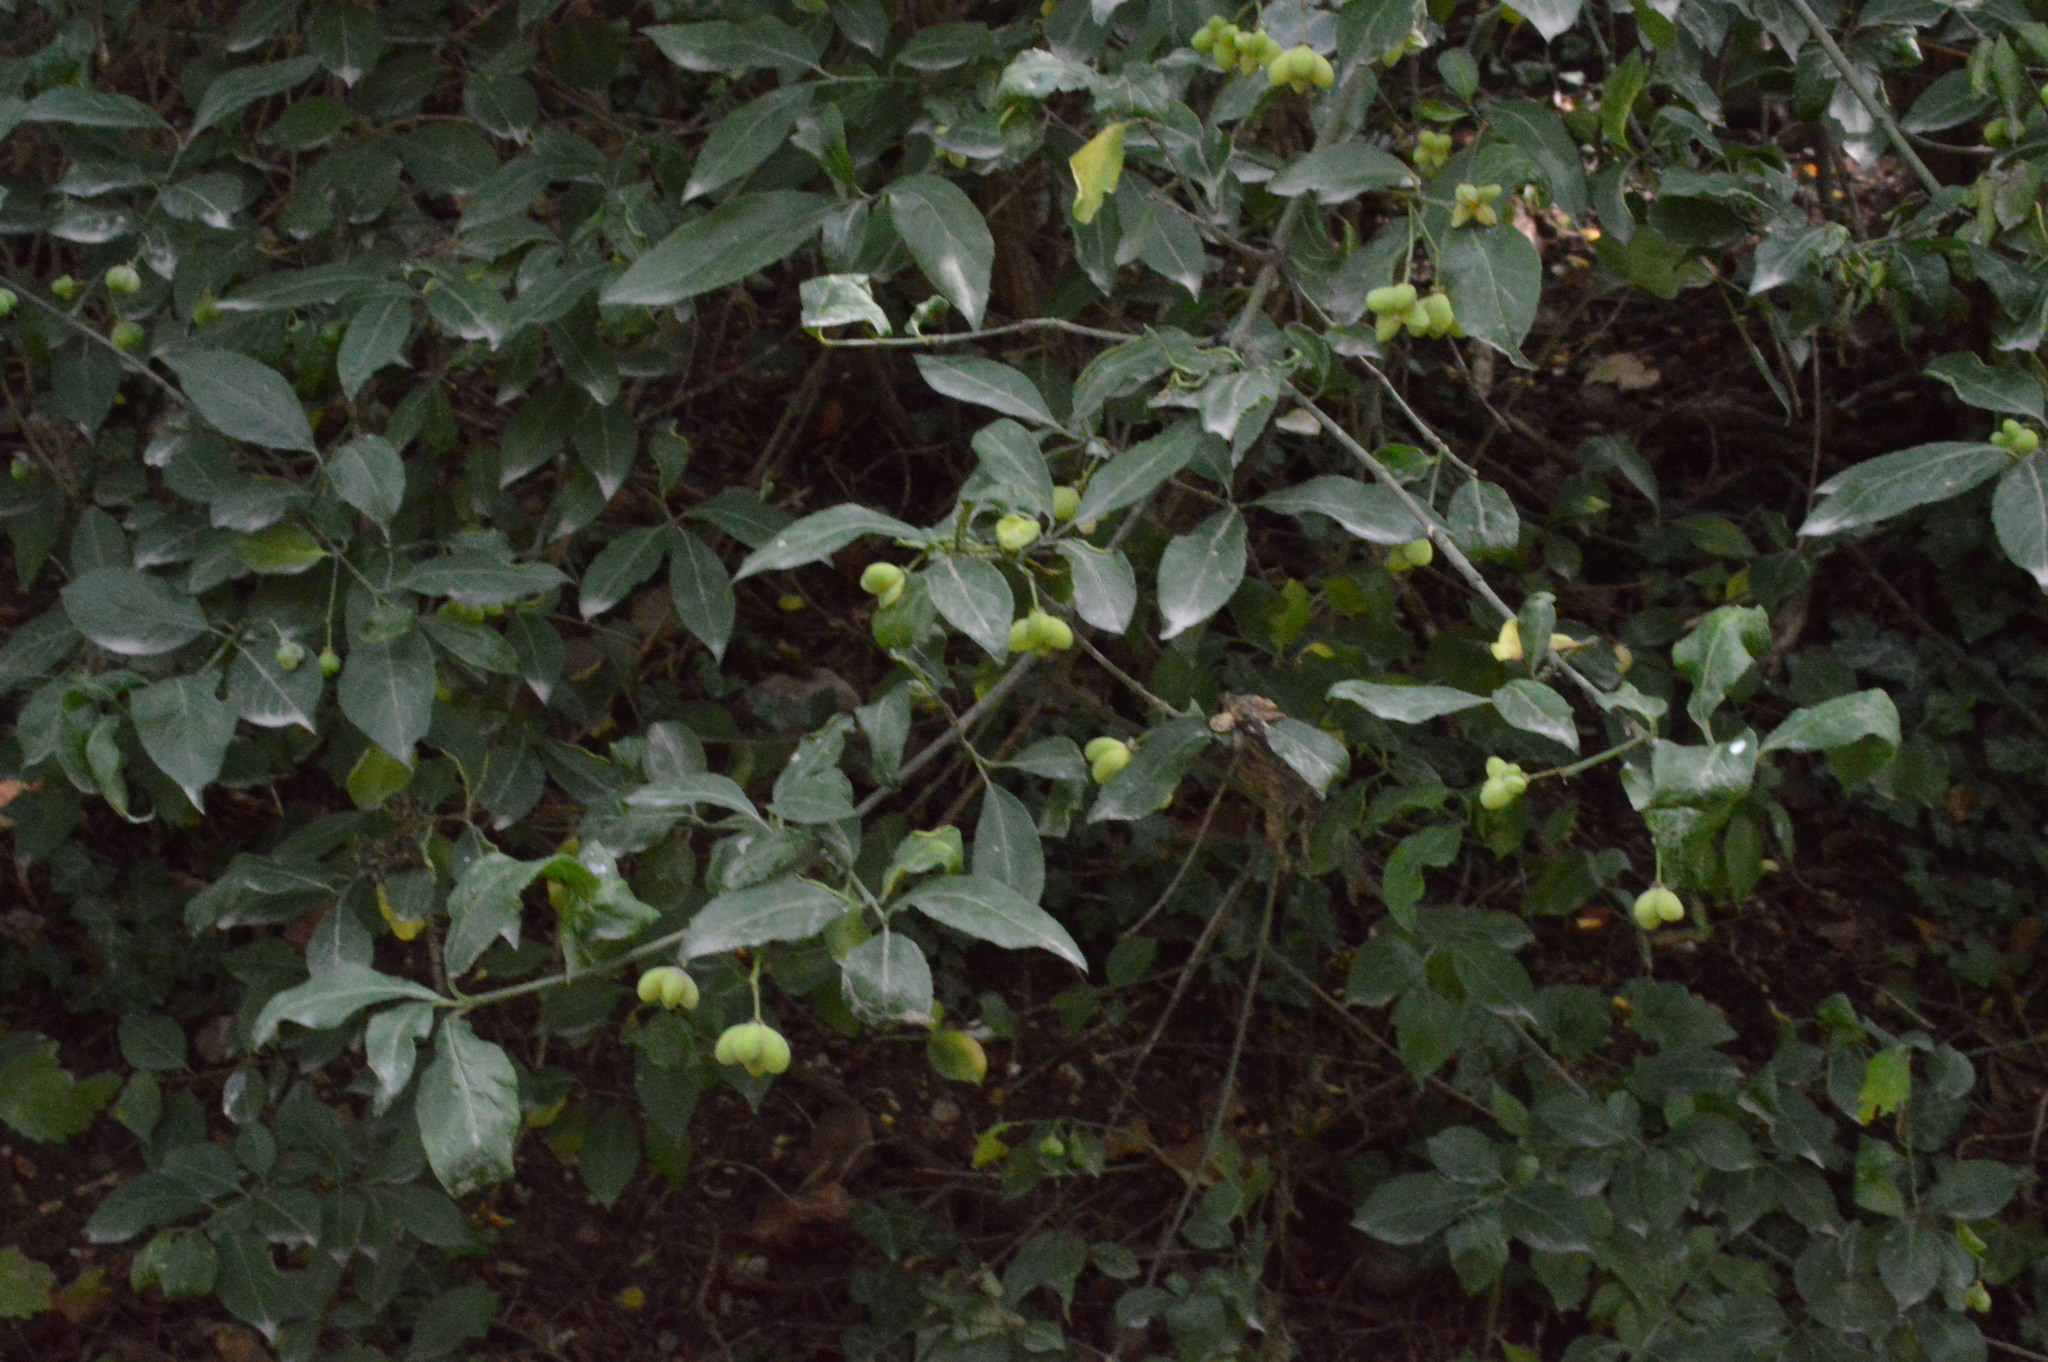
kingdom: Plantae
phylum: Tracheophyta
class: Magnoliopsida
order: Celastrales
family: Celastraceae
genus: Euonymus
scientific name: Euonymus europaeus
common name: Spindle
